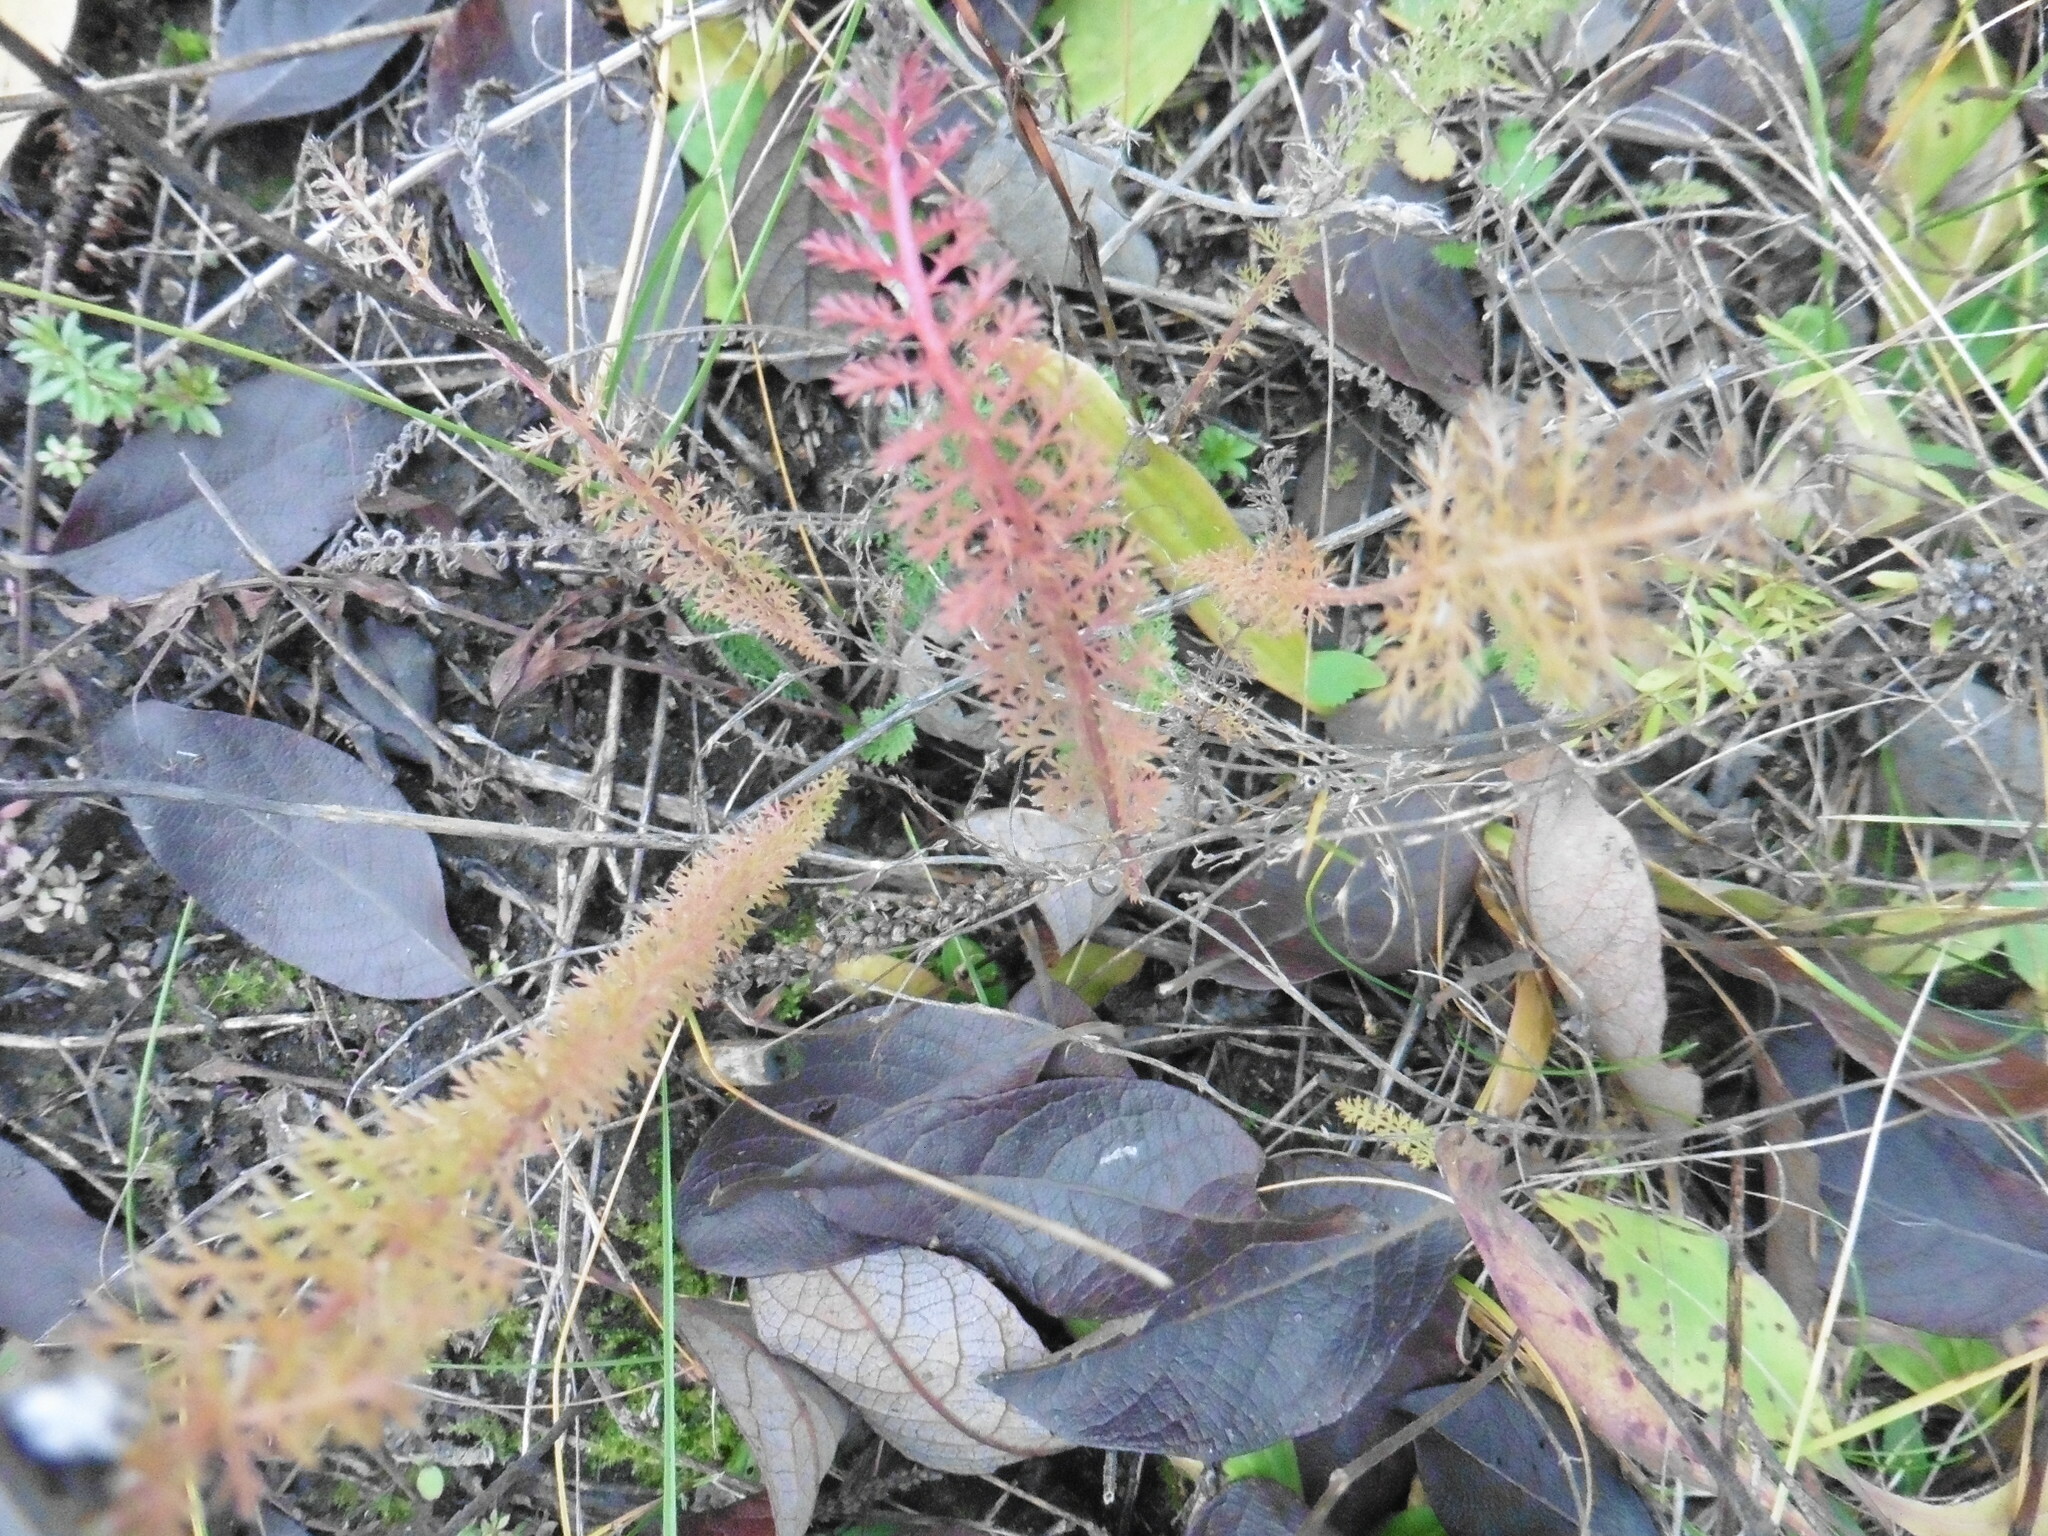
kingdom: Plantae
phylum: Tracheophyta
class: Magnoliopsida
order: Asterales
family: Asteraceae
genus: Achillea
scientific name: Achillea millefolium
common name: Yarrow
